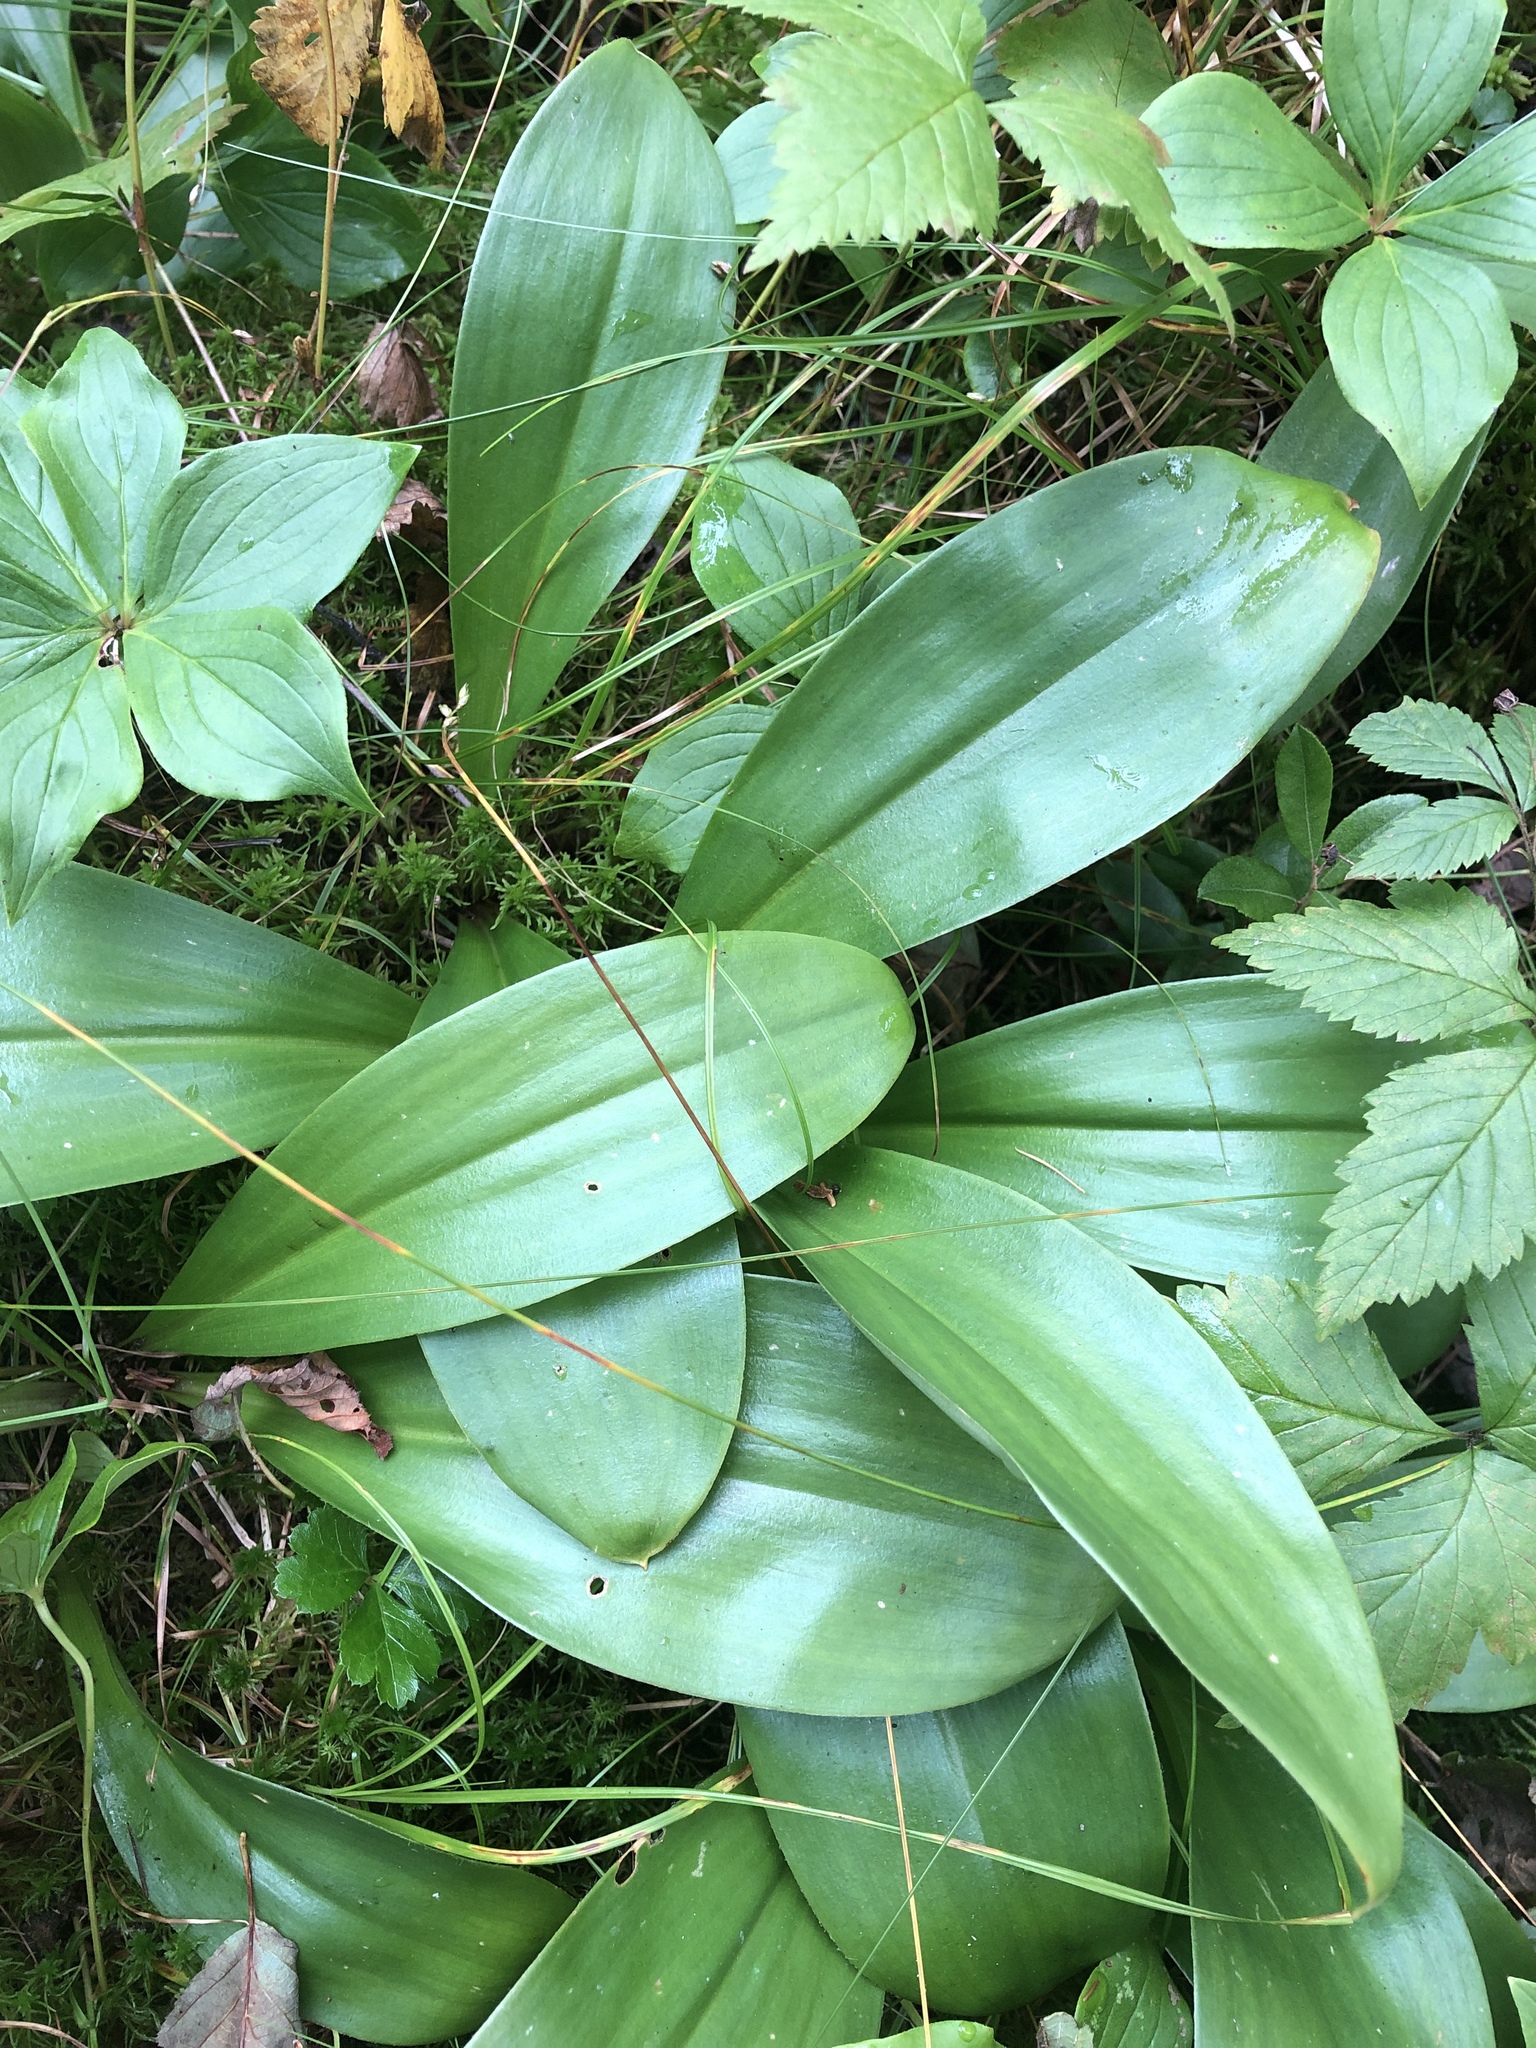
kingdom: Plantae
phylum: Tracheophyta
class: Liliopsida
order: Liliales
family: Liliaceae
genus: Clintonia
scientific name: Clintonia borealis
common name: Yellow clintonia
